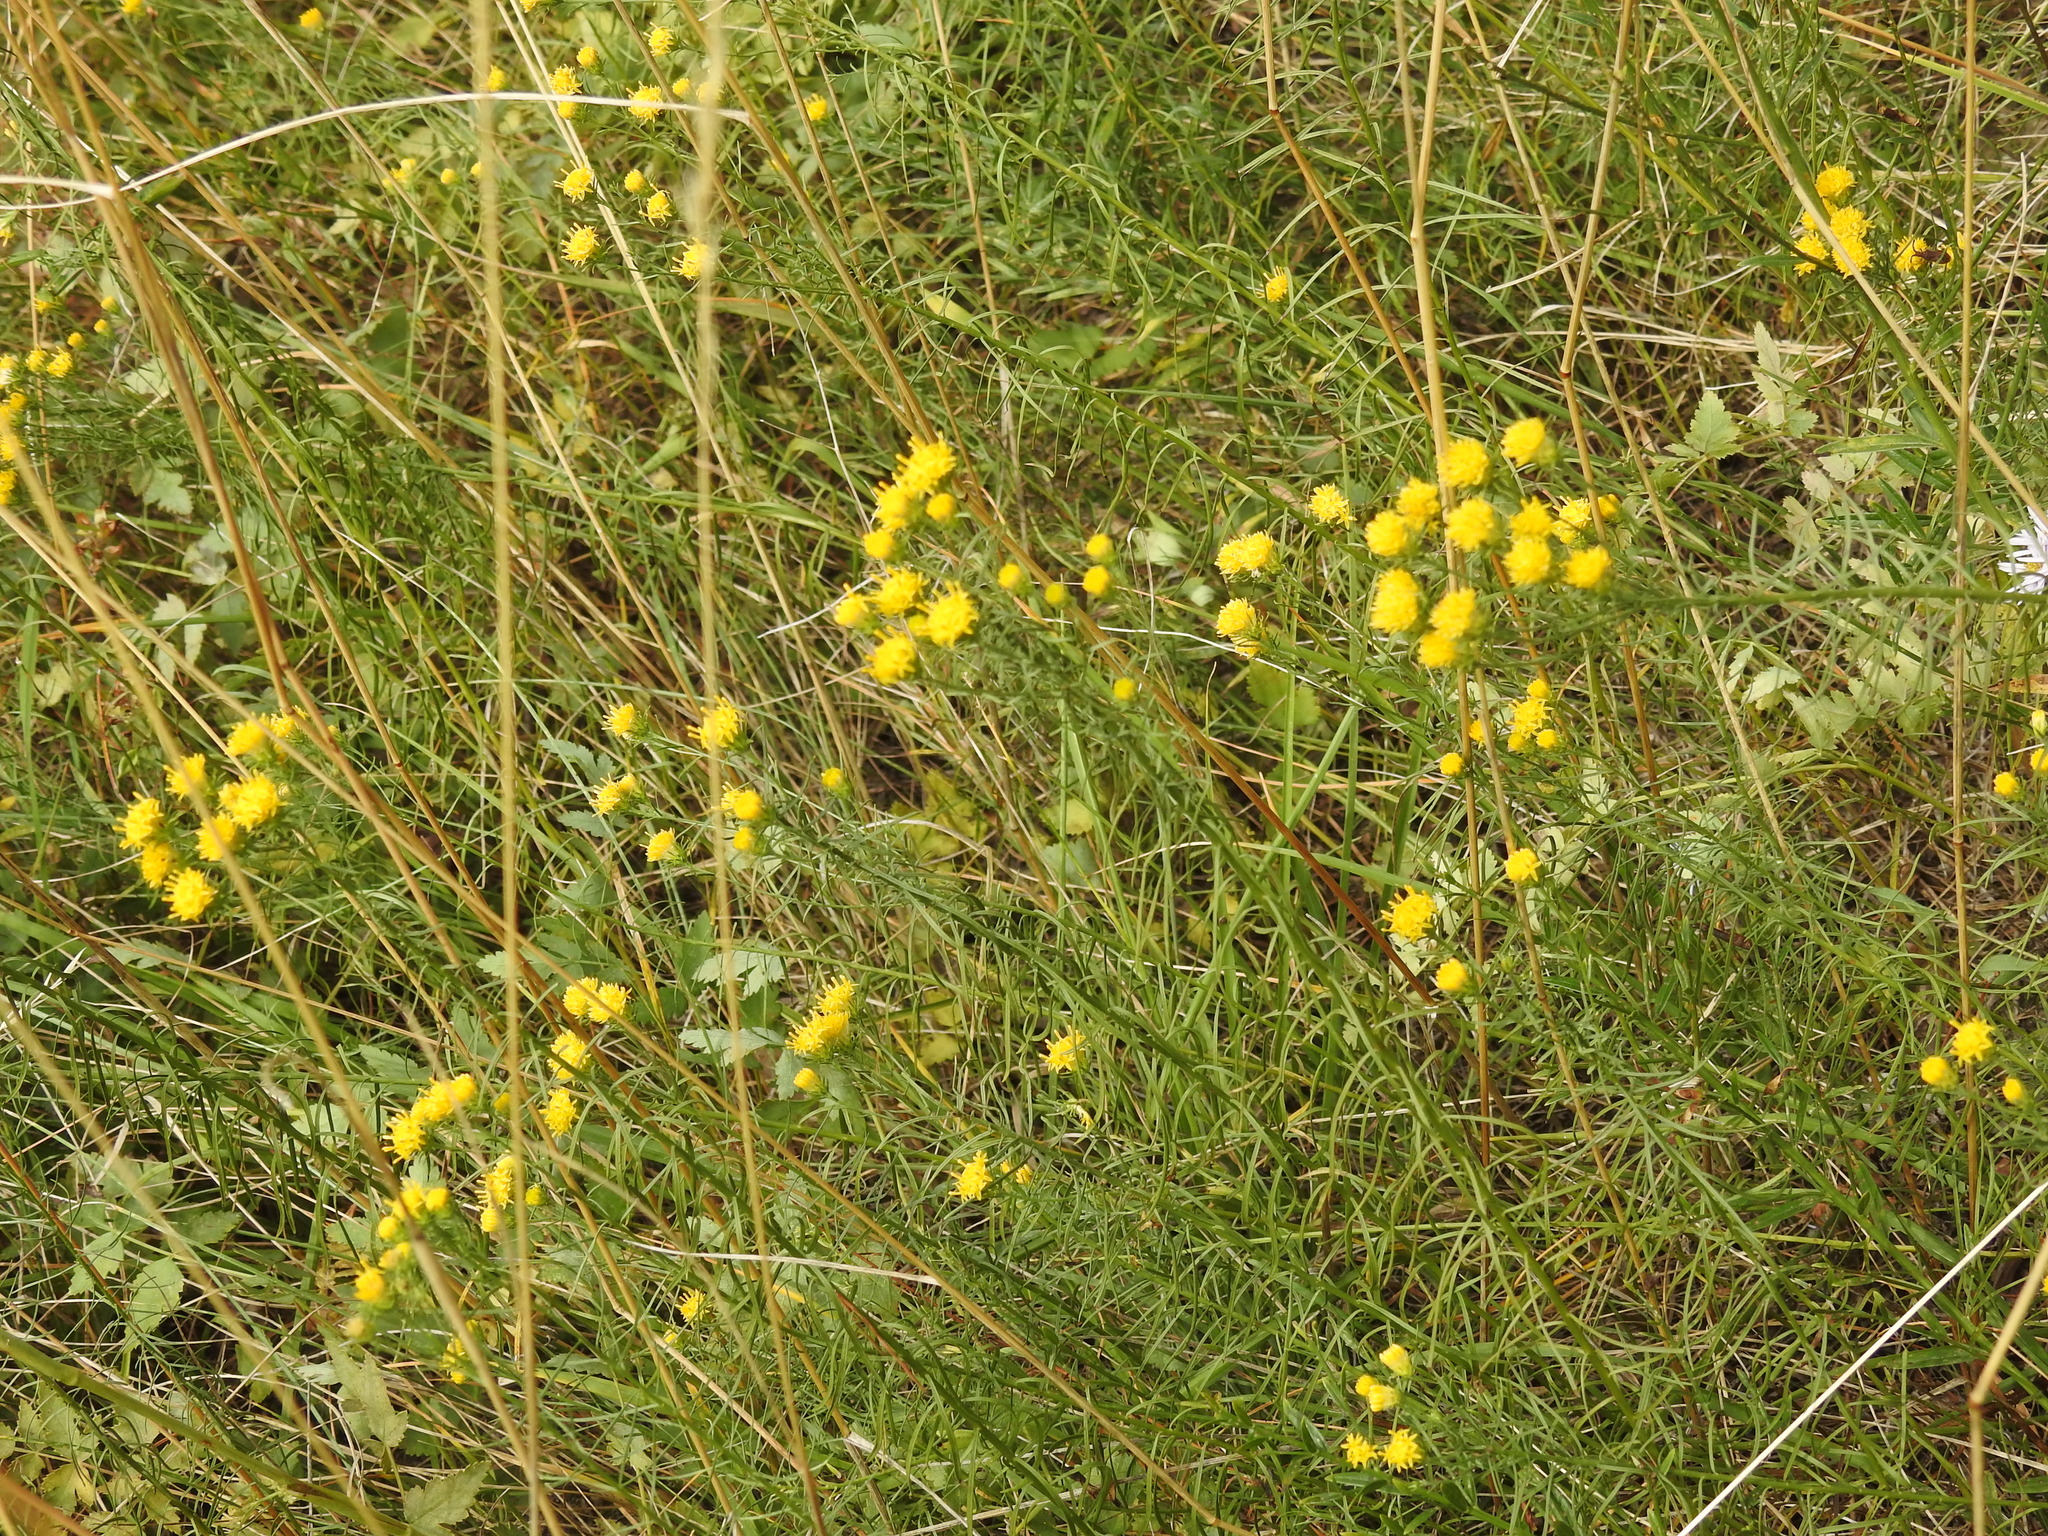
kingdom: Plantae
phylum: Tracheophyta
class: Magnoliopsida
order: Asterales
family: Asteraceae
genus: Galatella
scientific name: Galatella linosyris
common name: Goldilocks aster
